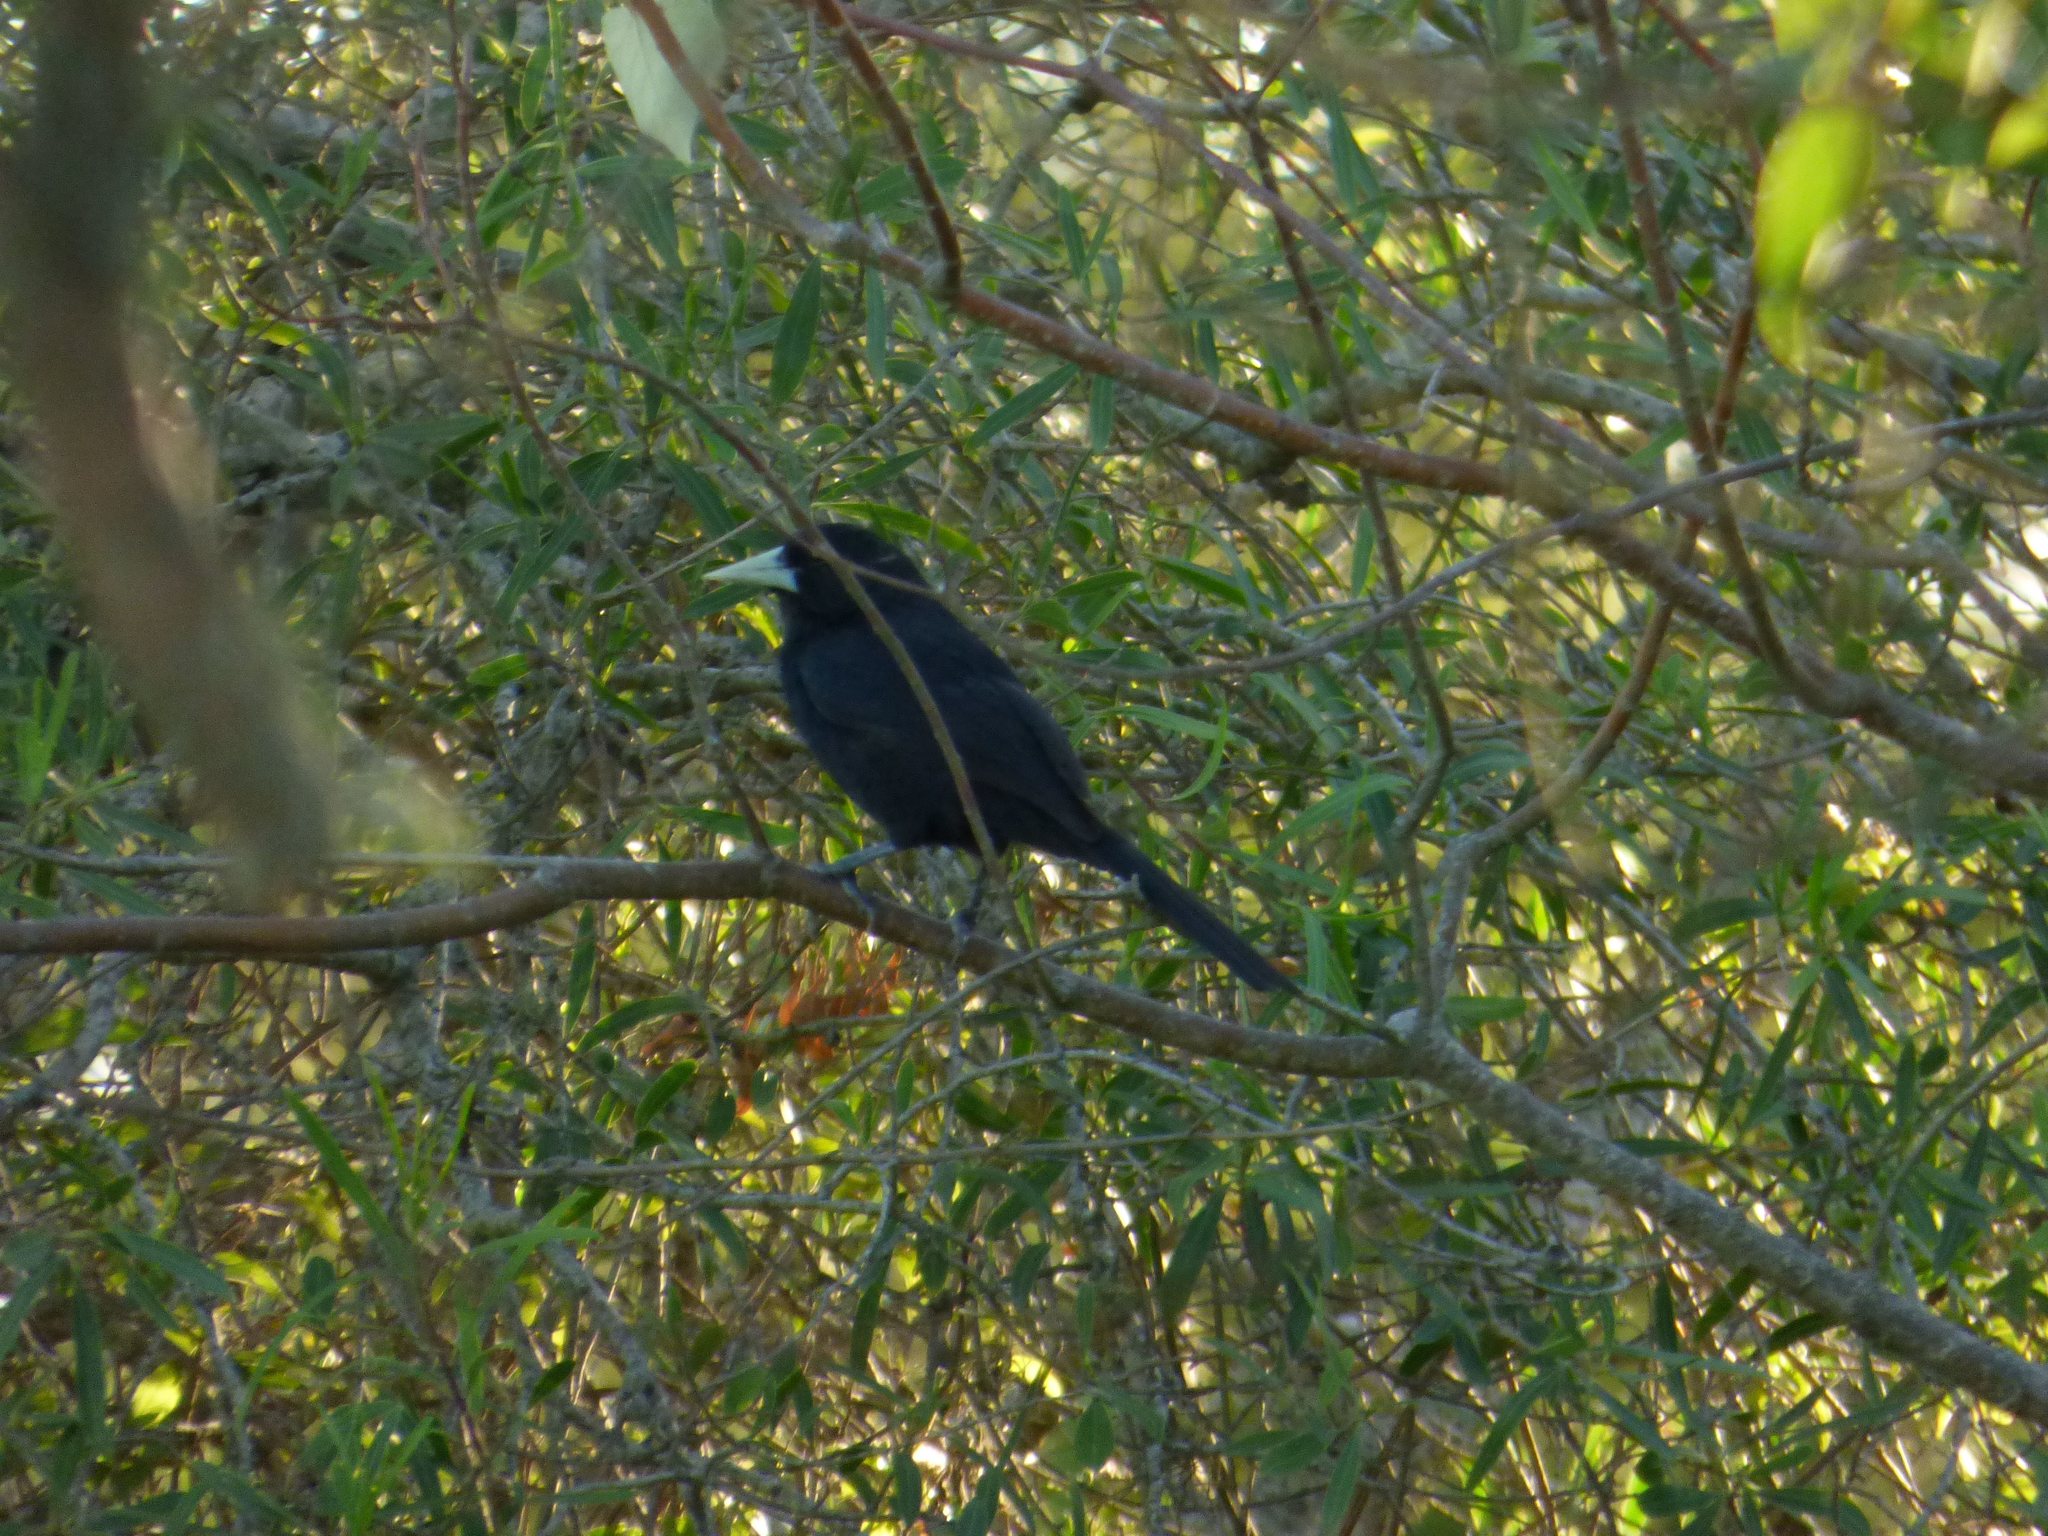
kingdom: Animalia
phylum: Chordata
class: Aves
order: Passeriformes
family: Icteridae
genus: Cacicus
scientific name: Cacicus solitarius
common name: Solitary cacique
